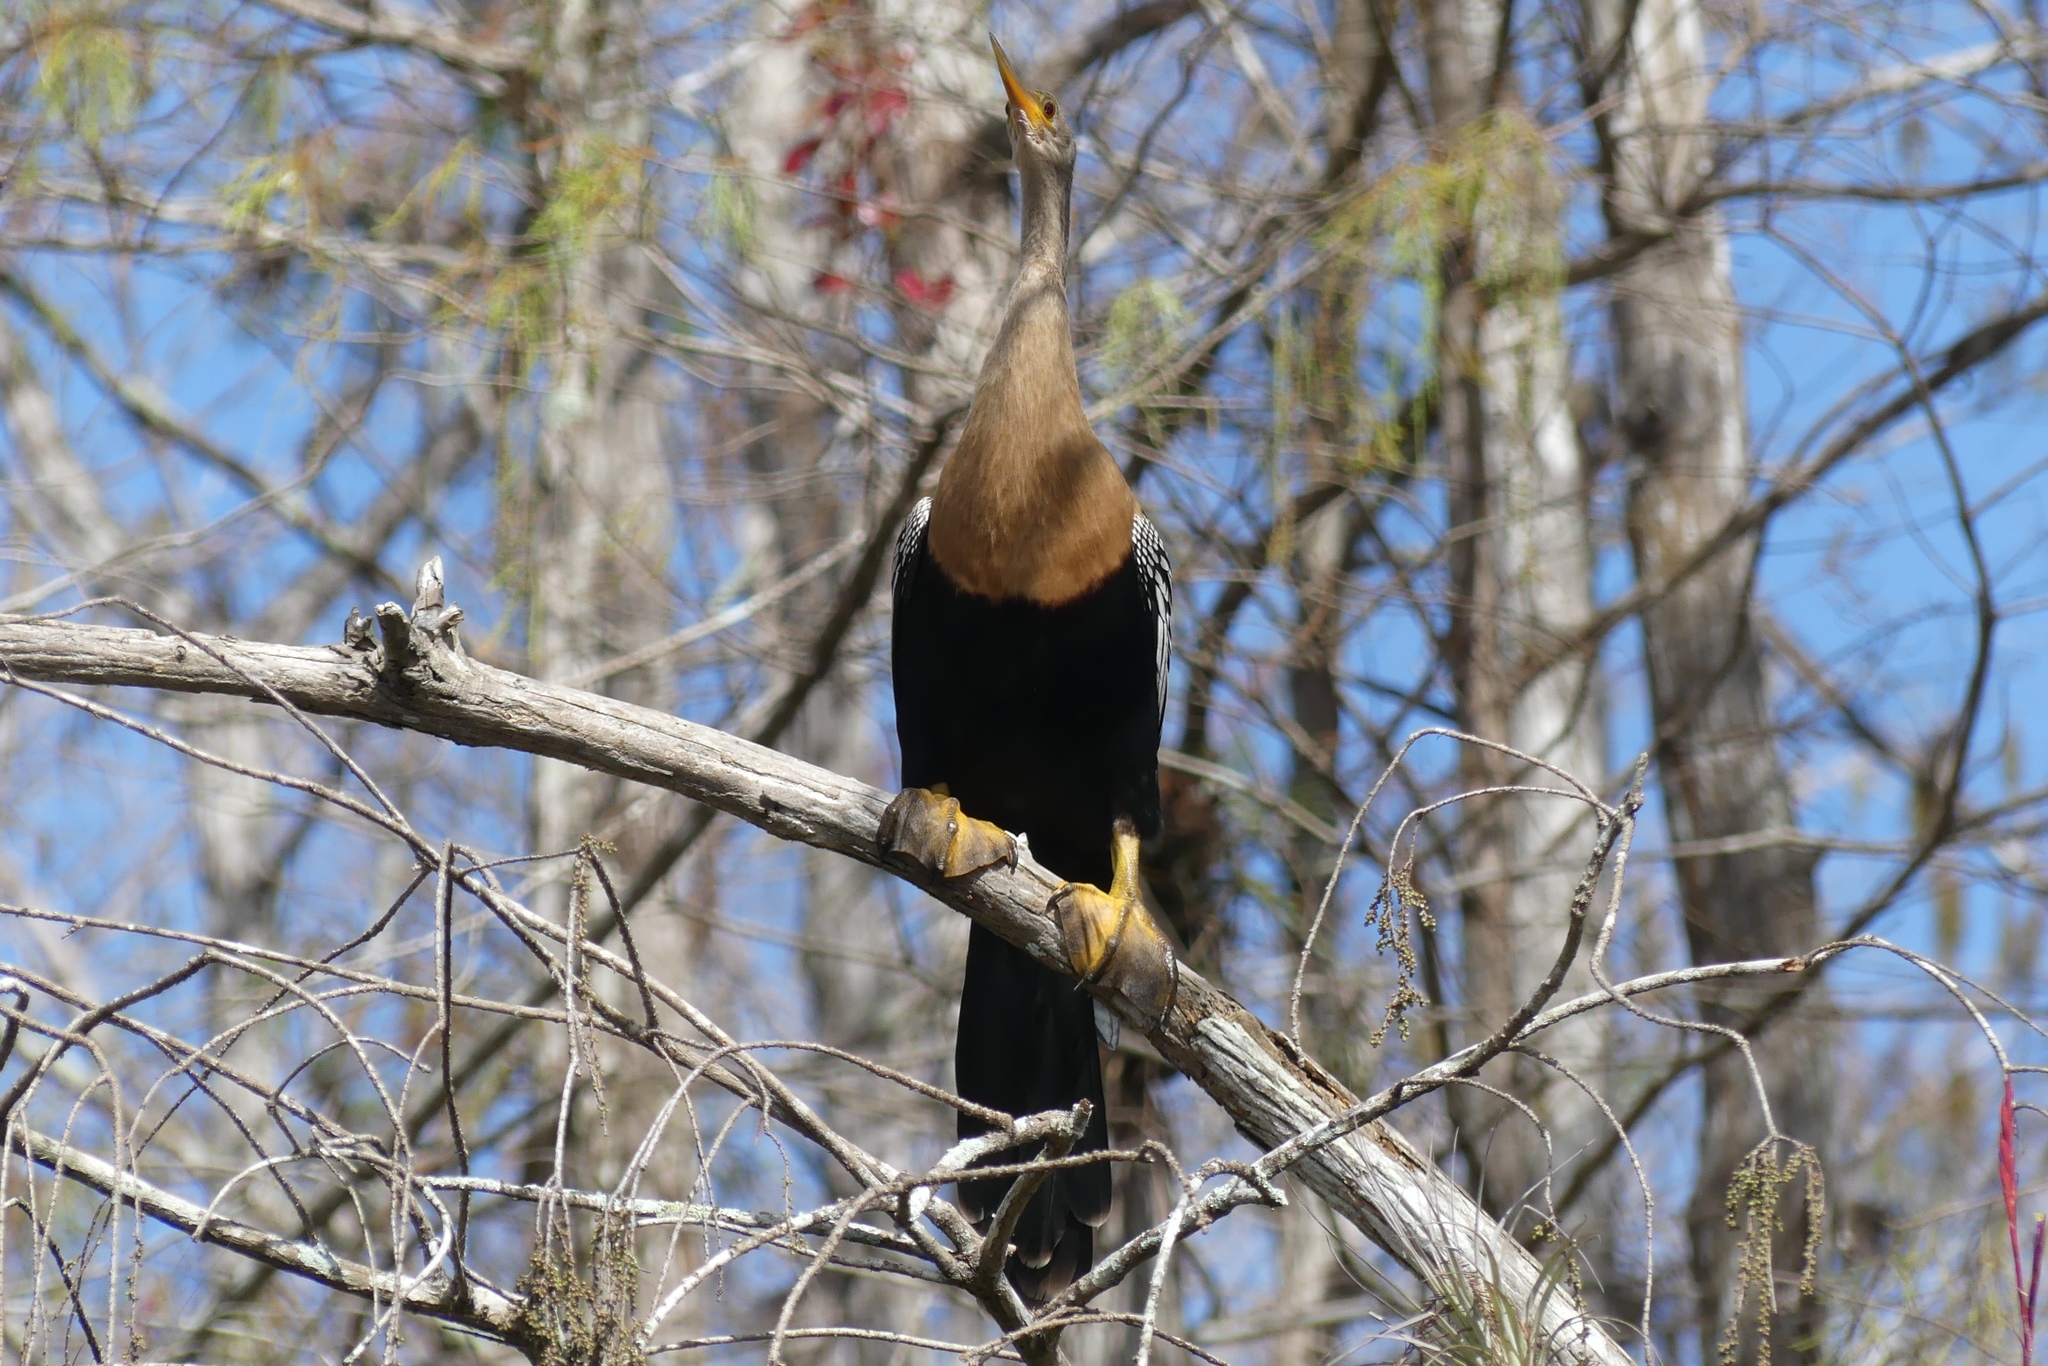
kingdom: Animalia
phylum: Chordata
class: Aves
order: Suliformes
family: Anhingidae
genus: Anhinga
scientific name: Anhinga anhinga
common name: Anhinga
